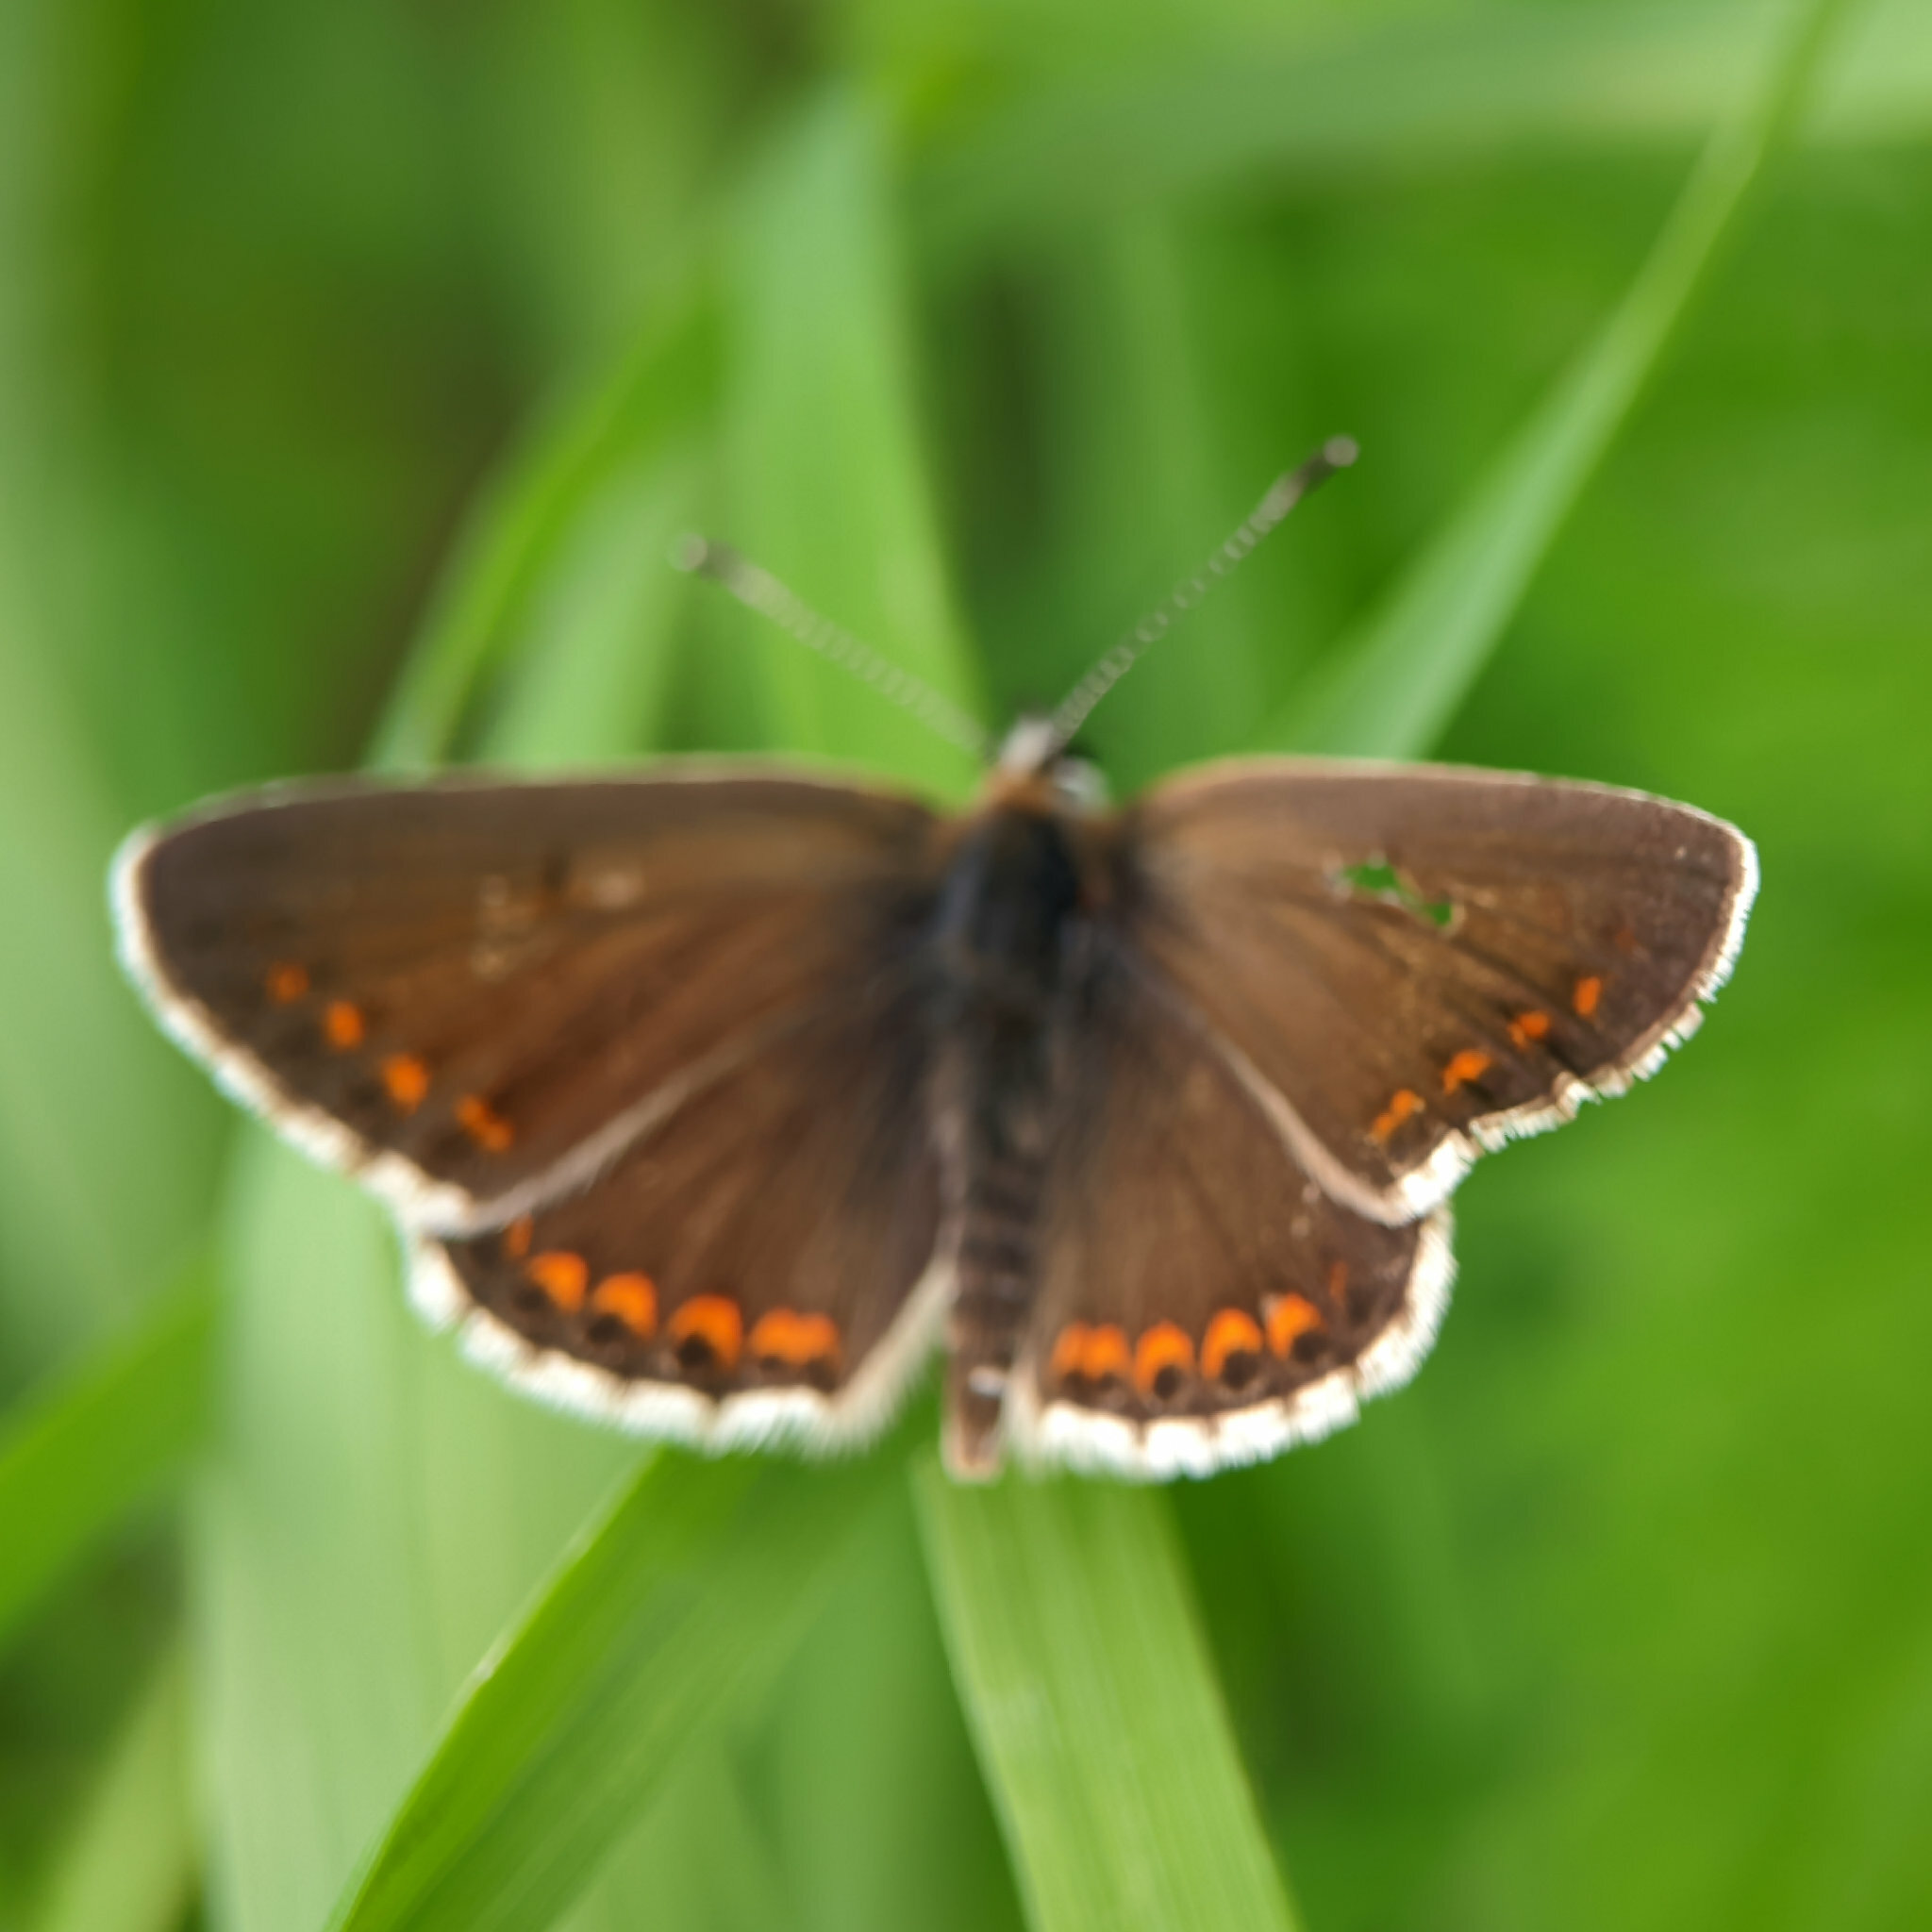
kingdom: Animalia
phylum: Arthropoda
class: Insecta
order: Lepidoptera
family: Lycaenidae
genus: Aricia
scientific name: Aricia agestis
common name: Brown argus
